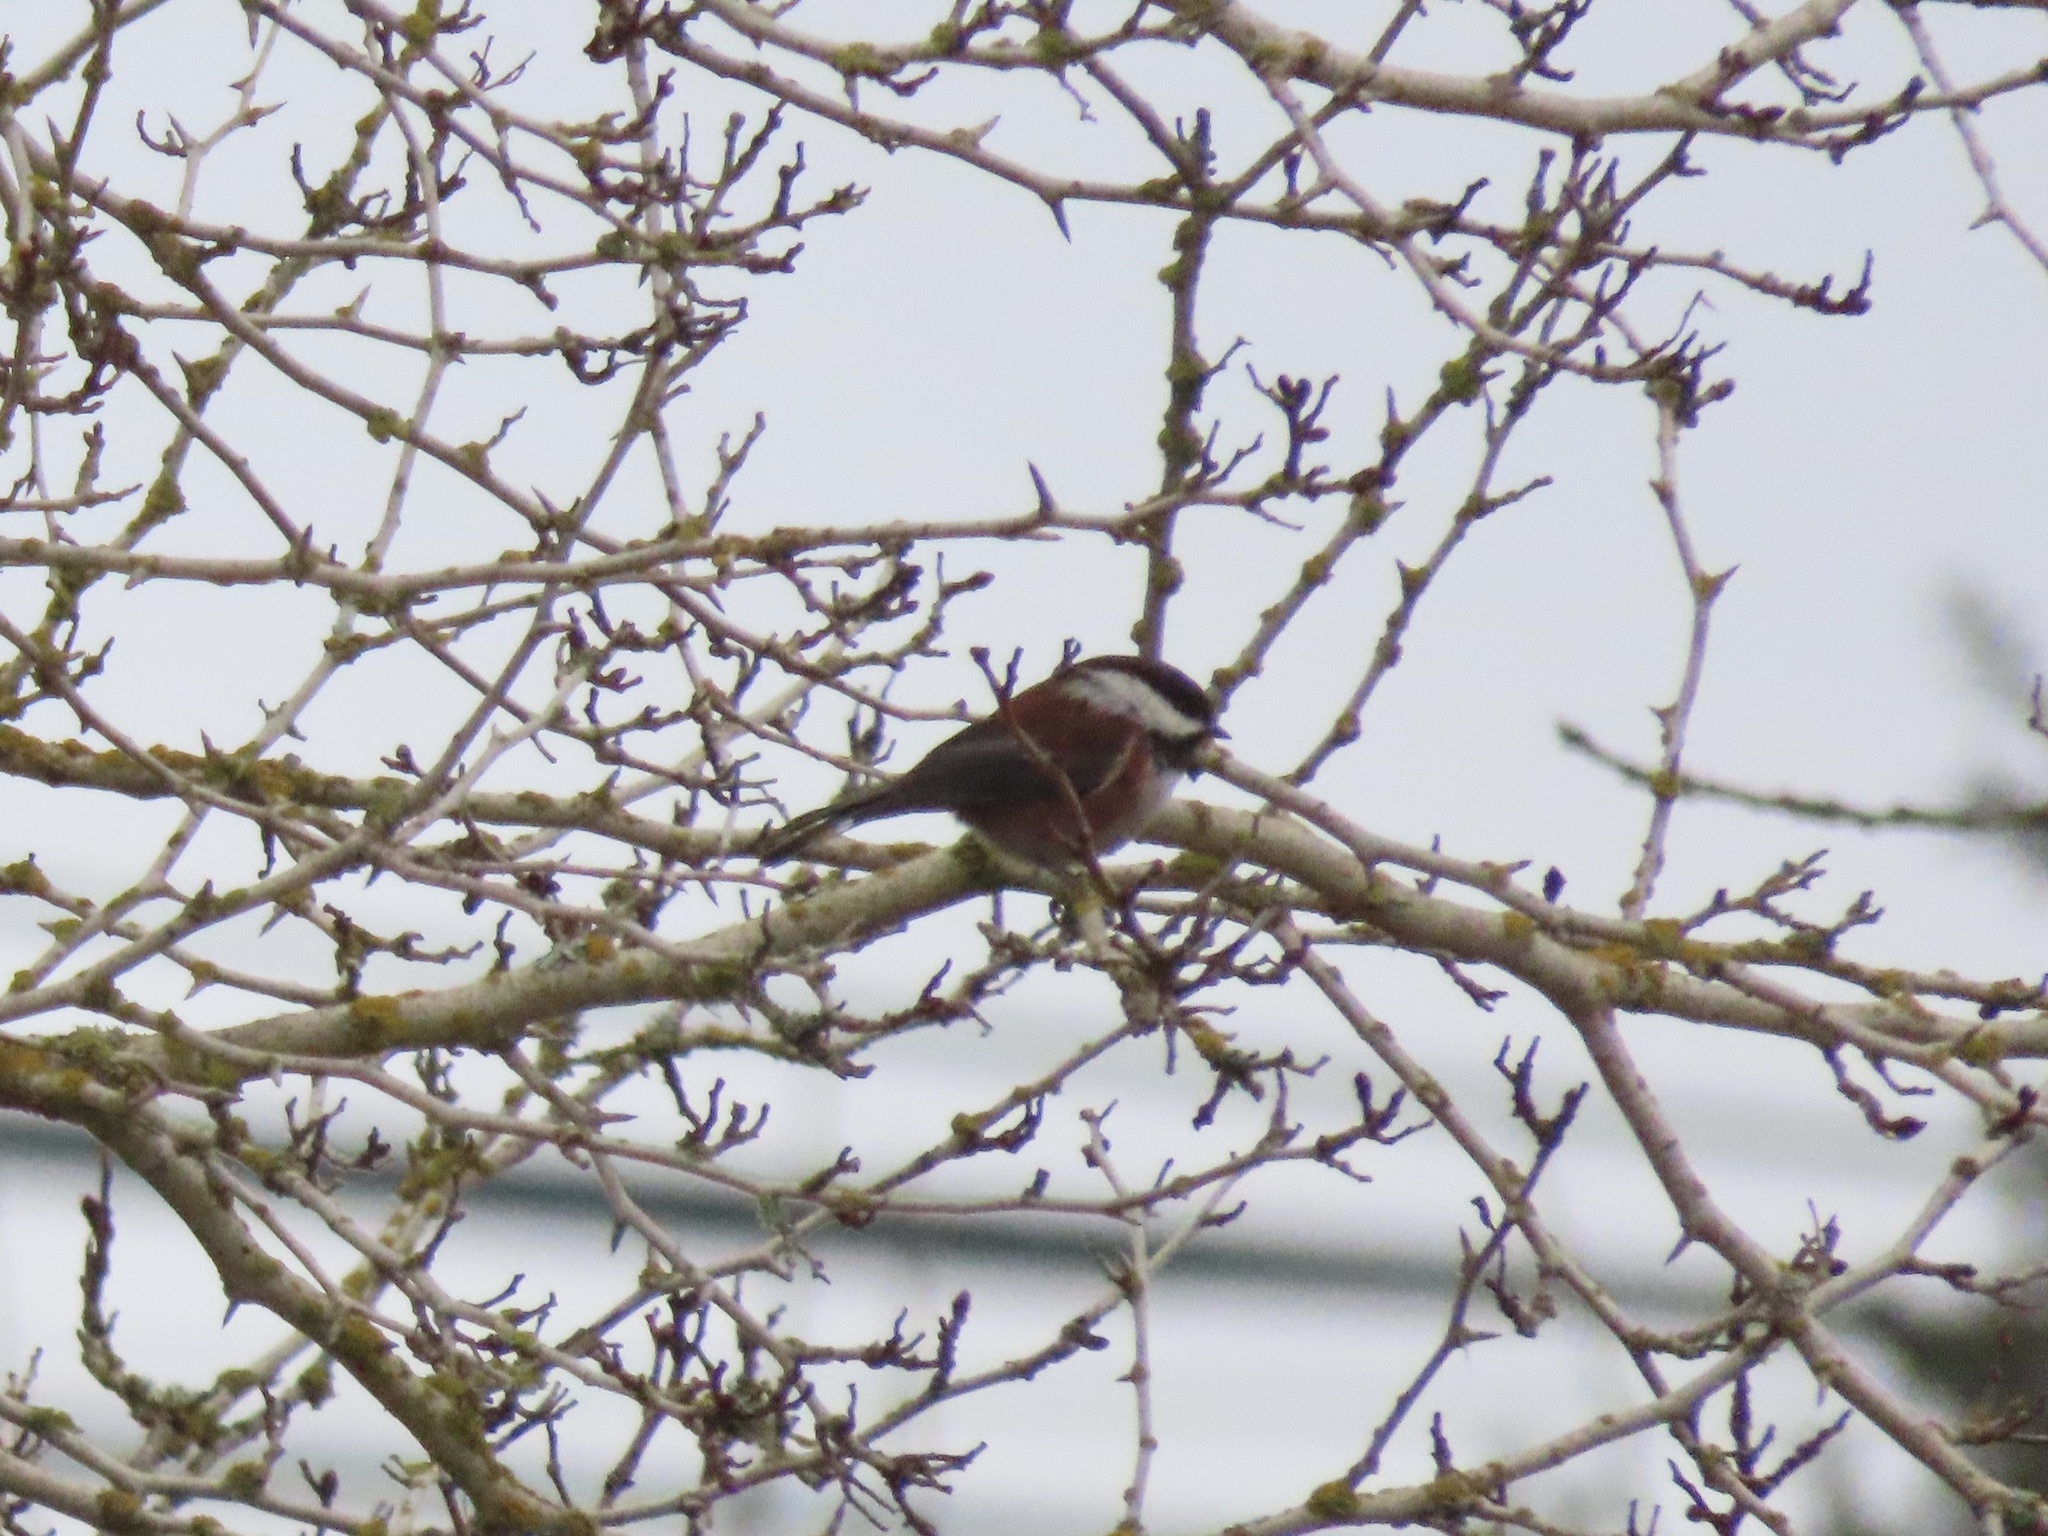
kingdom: Animalia
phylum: Chordata
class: Aves
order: Passeriformes
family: Paridae
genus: Poecile
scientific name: Poecile rufescens
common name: Chestnut-backed chickadee
